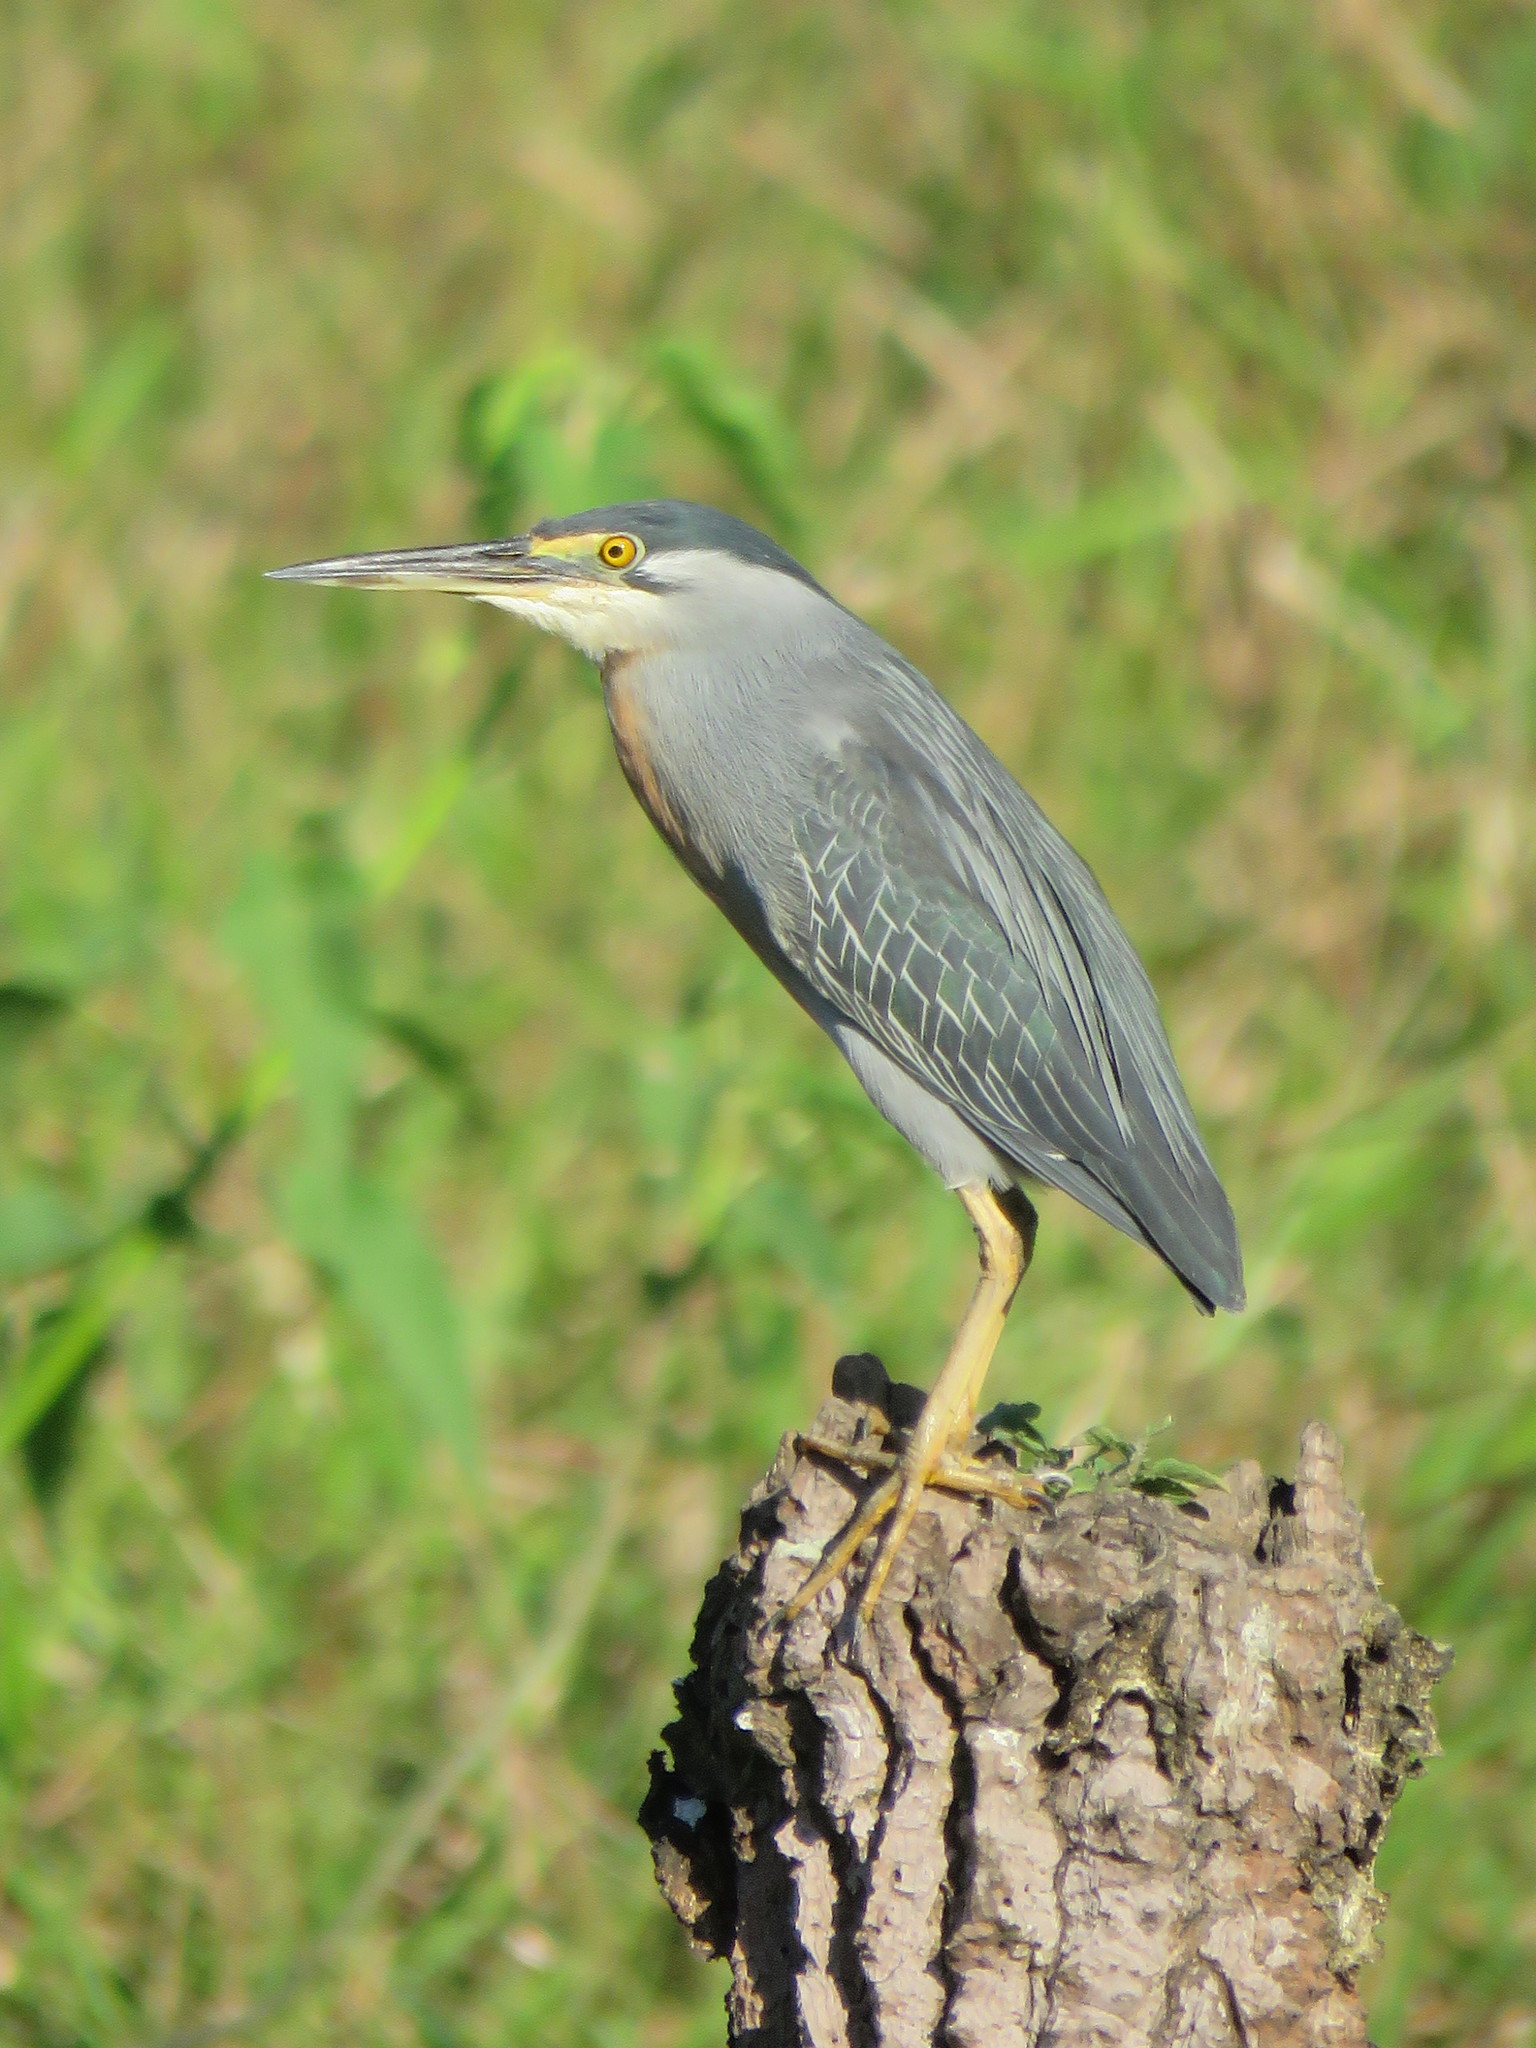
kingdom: Animalia
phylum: Chordata
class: Aves
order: Pelecaniformes
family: Ardeidae
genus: Butorides
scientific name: Butorides striata
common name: Striated heron
